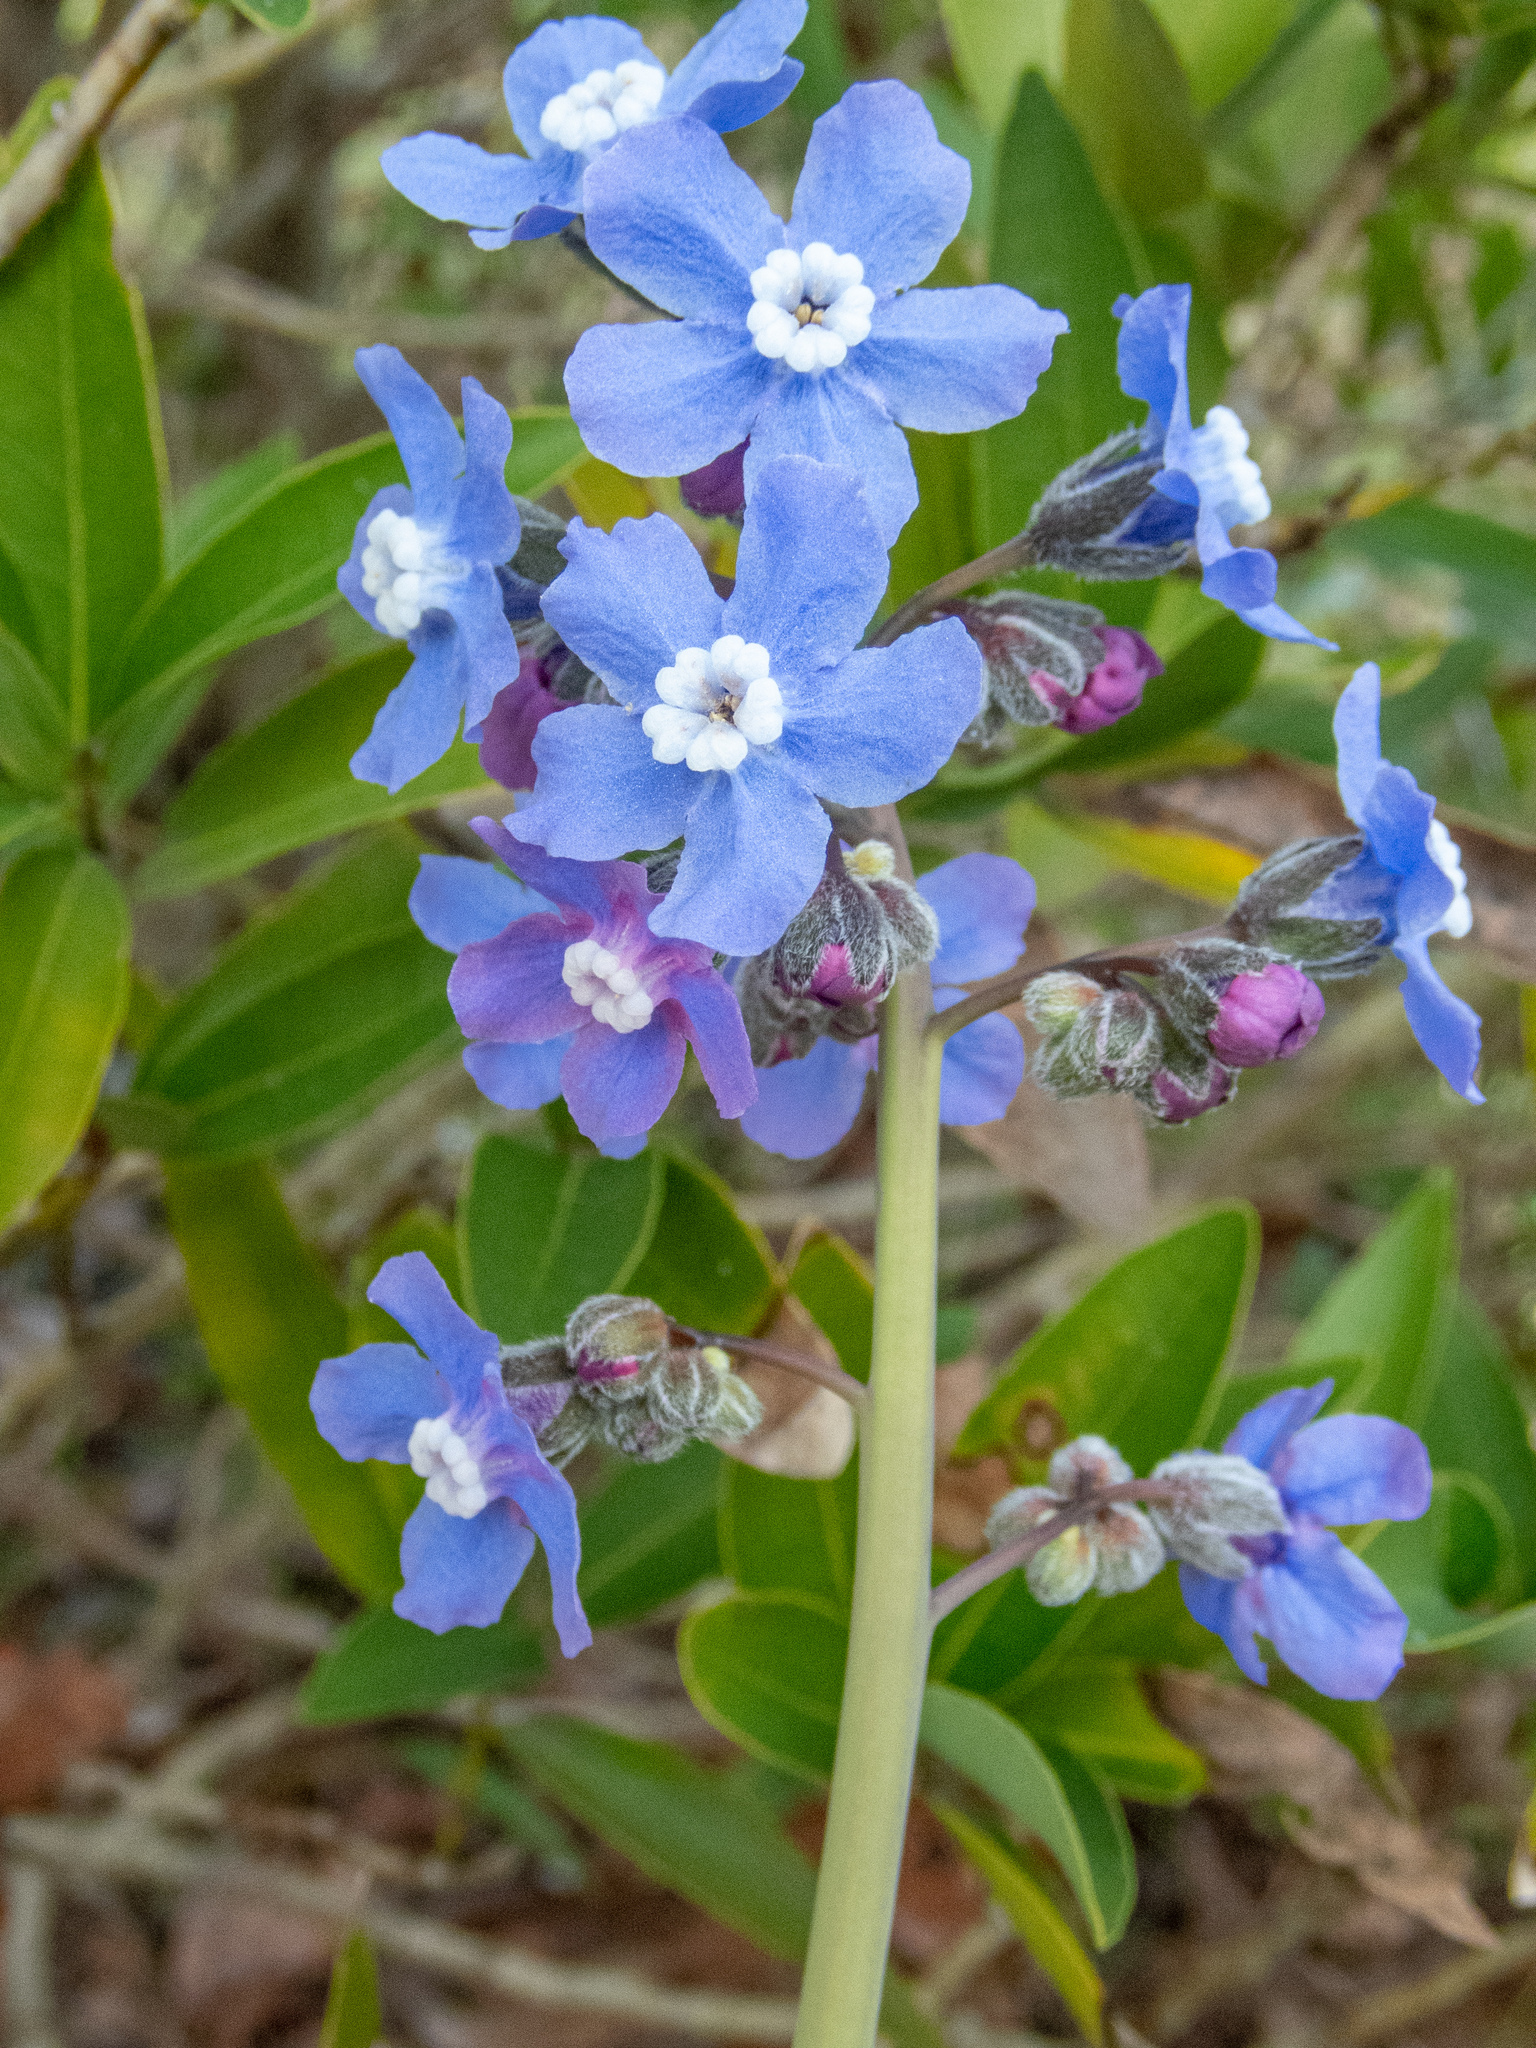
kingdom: Plantae
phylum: Tracheophyta
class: Magnoliopsida
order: Boraginales
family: Boraginaceae
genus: Adelinia
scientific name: Adelinia grande
